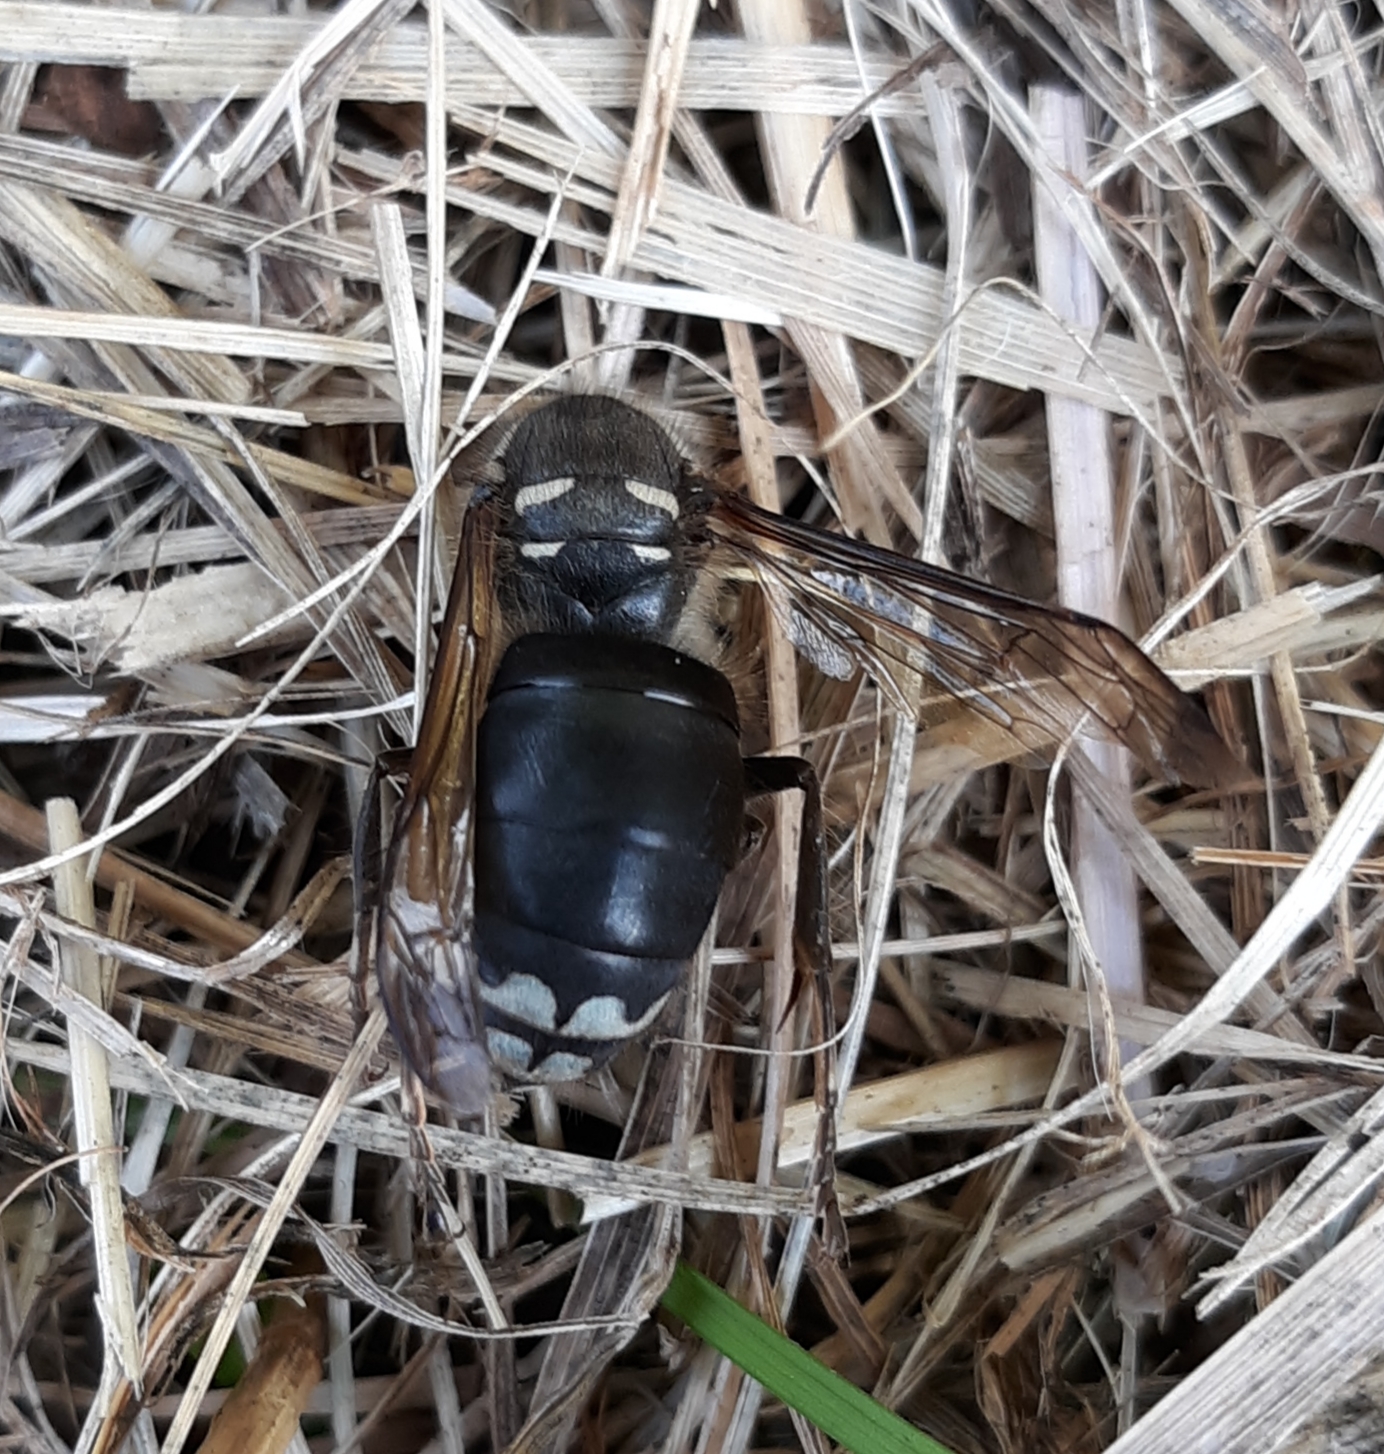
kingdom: Animalia
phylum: Arthropoda
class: Insecta
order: Hymenoptera
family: Vespidae
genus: Dolichovespula
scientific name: Dolichovespula maculata
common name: Bald-faced hornet
